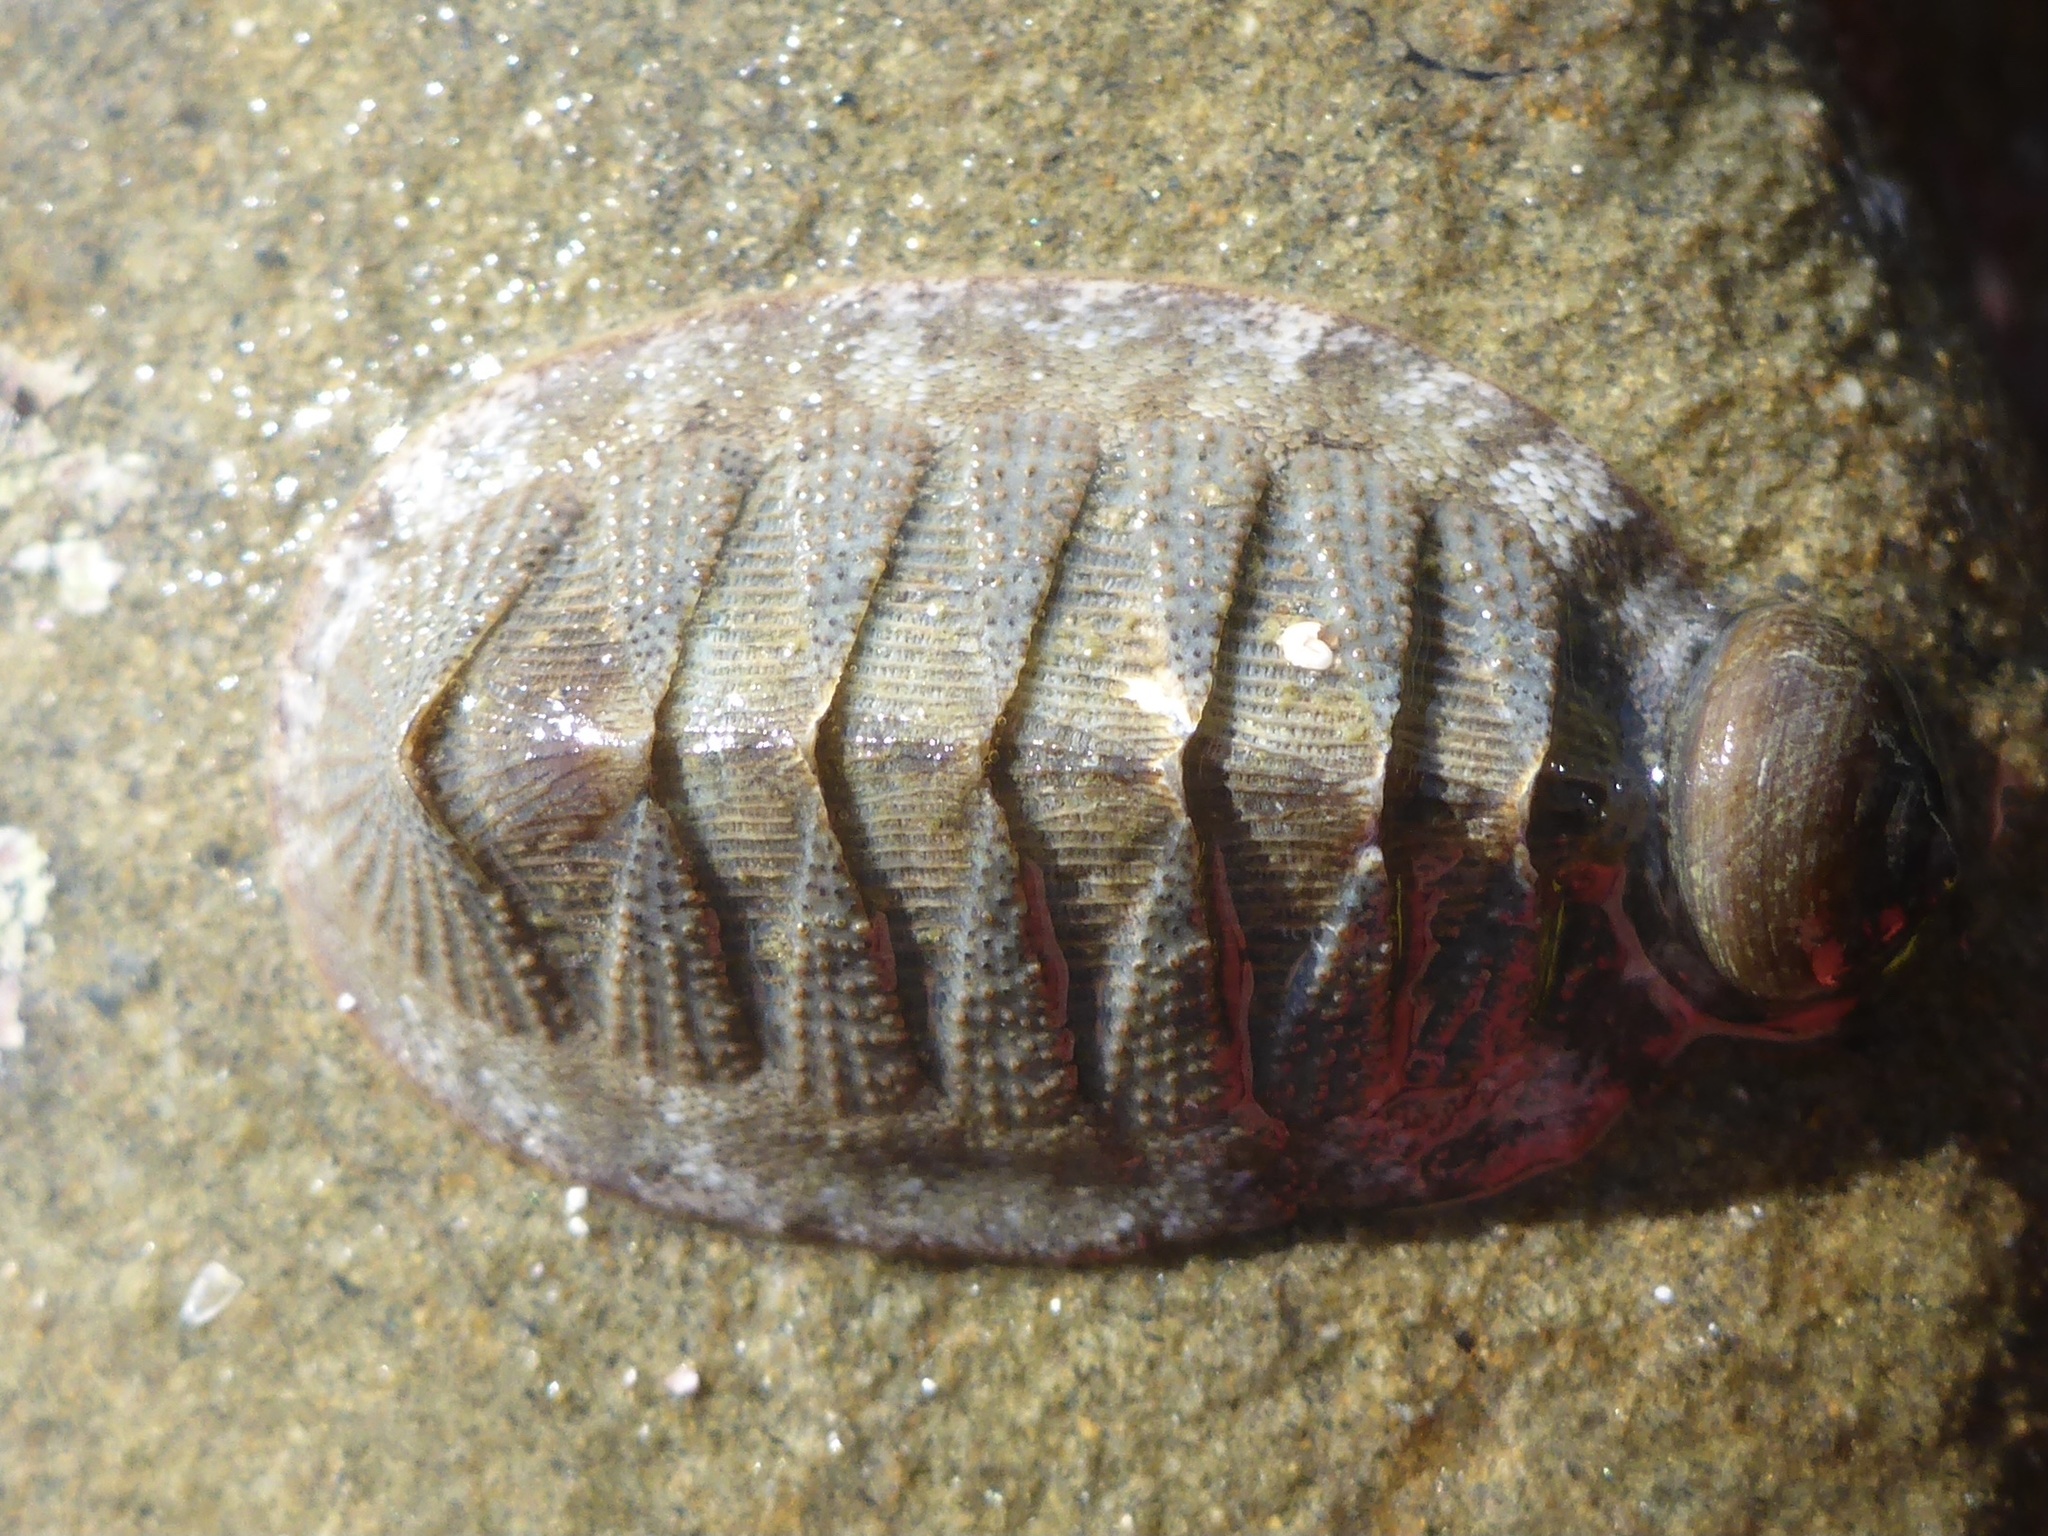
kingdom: Animalia
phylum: Mollusca
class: Polyplacophora
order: Chitonida
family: Ischnochitonidae
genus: Lepidozona
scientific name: Lepidozona cooperi
